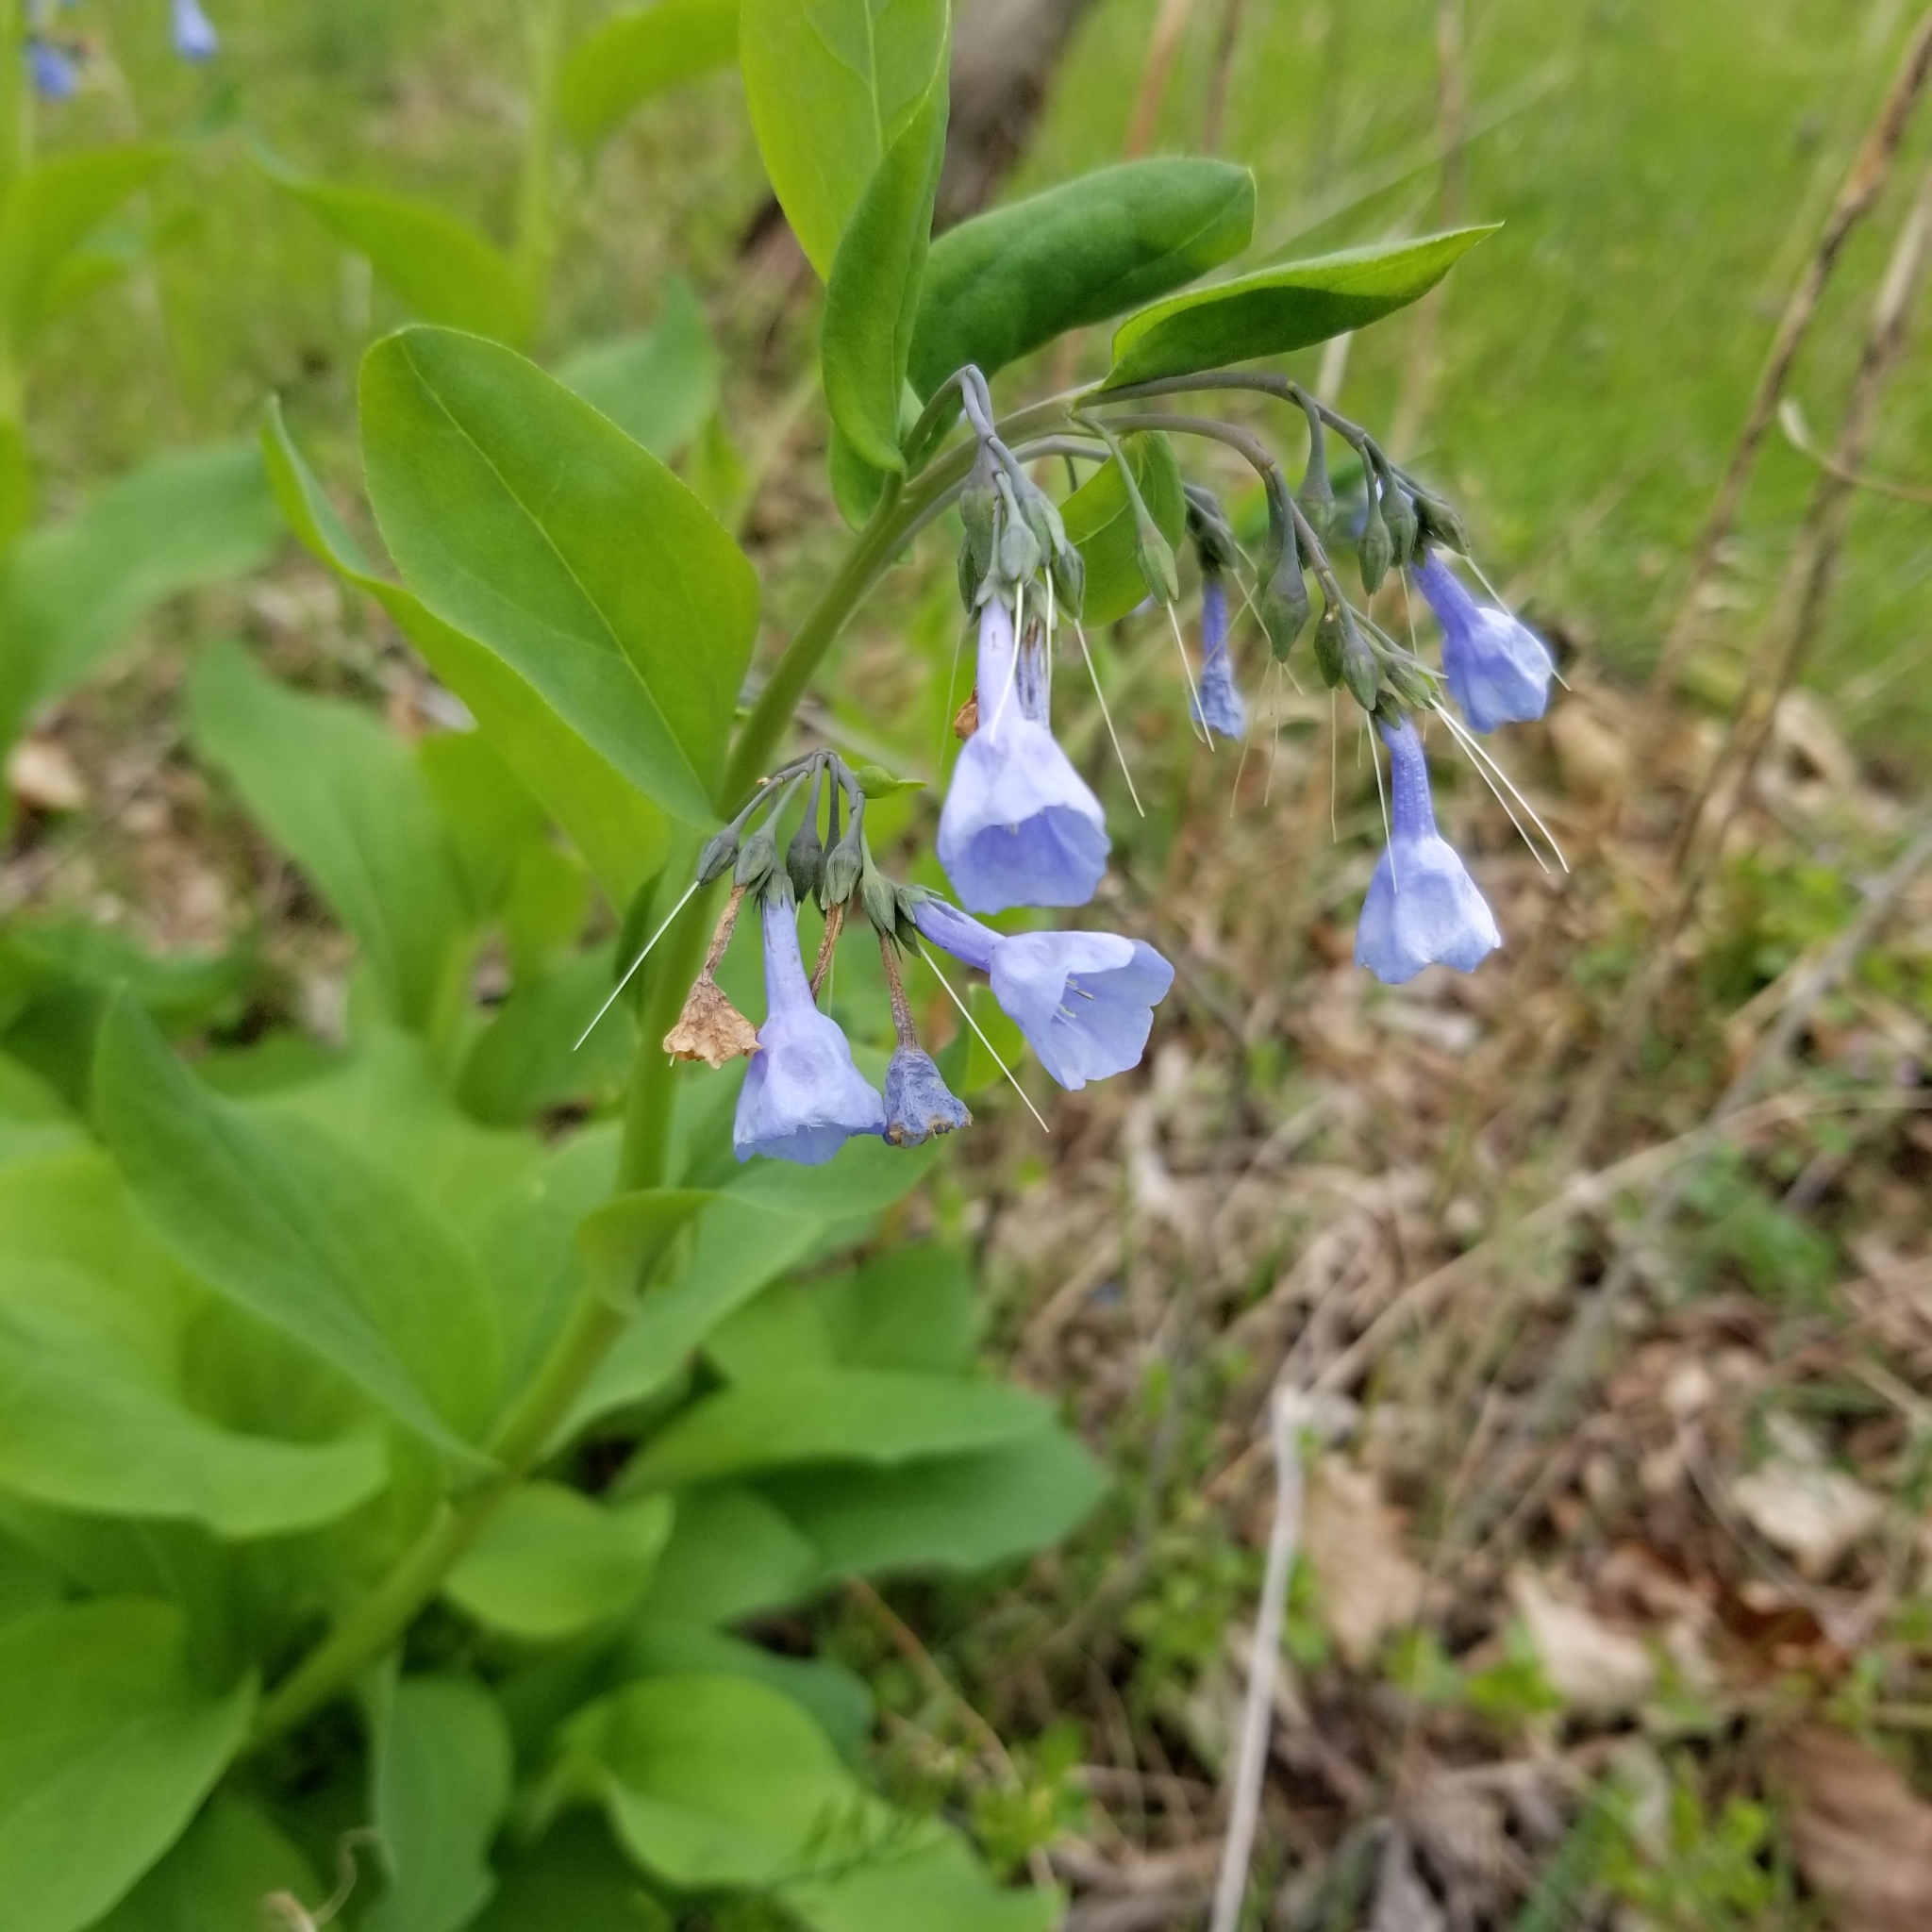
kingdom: Plantae
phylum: Tracheophyta
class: Magnoliopsida
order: Boraginales
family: Boraginaceae
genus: Mertensia
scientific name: Mertensia virginica
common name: Virginia bluebells
